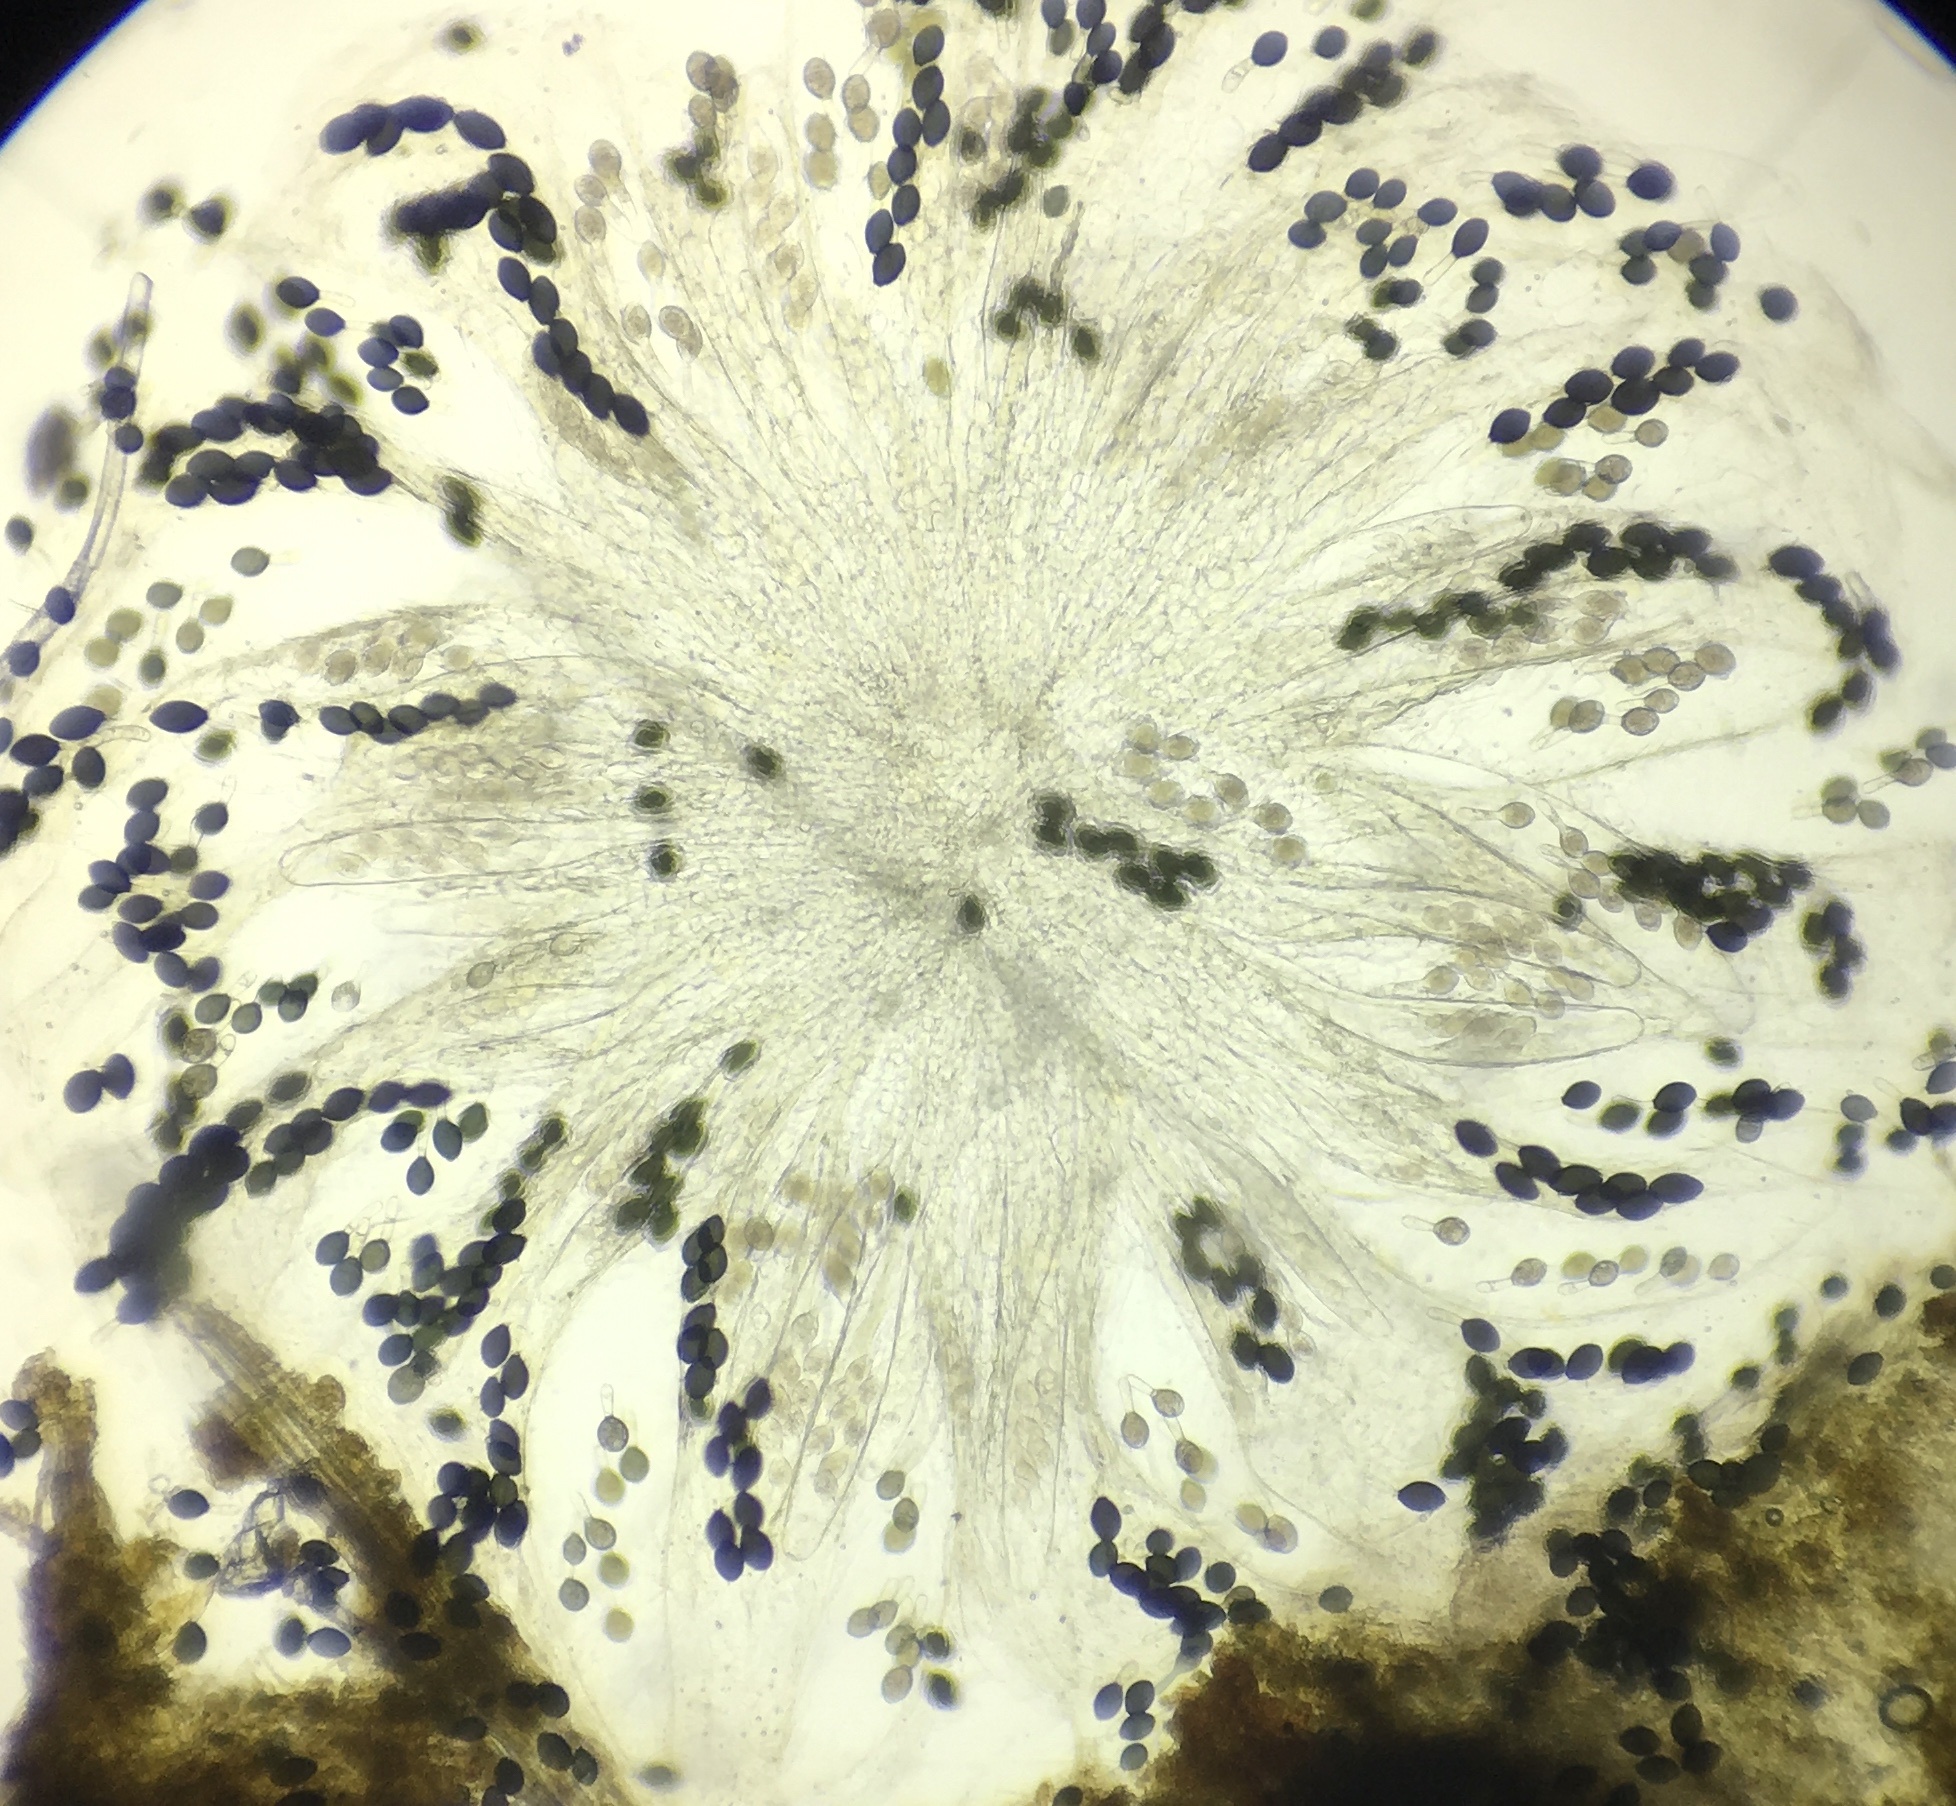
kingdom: Fungi
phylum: Ascomycota
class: Sordariomycetes
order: Sordariales
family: Podosporaceae
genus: Podospora
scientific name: Podospora pyriformis
